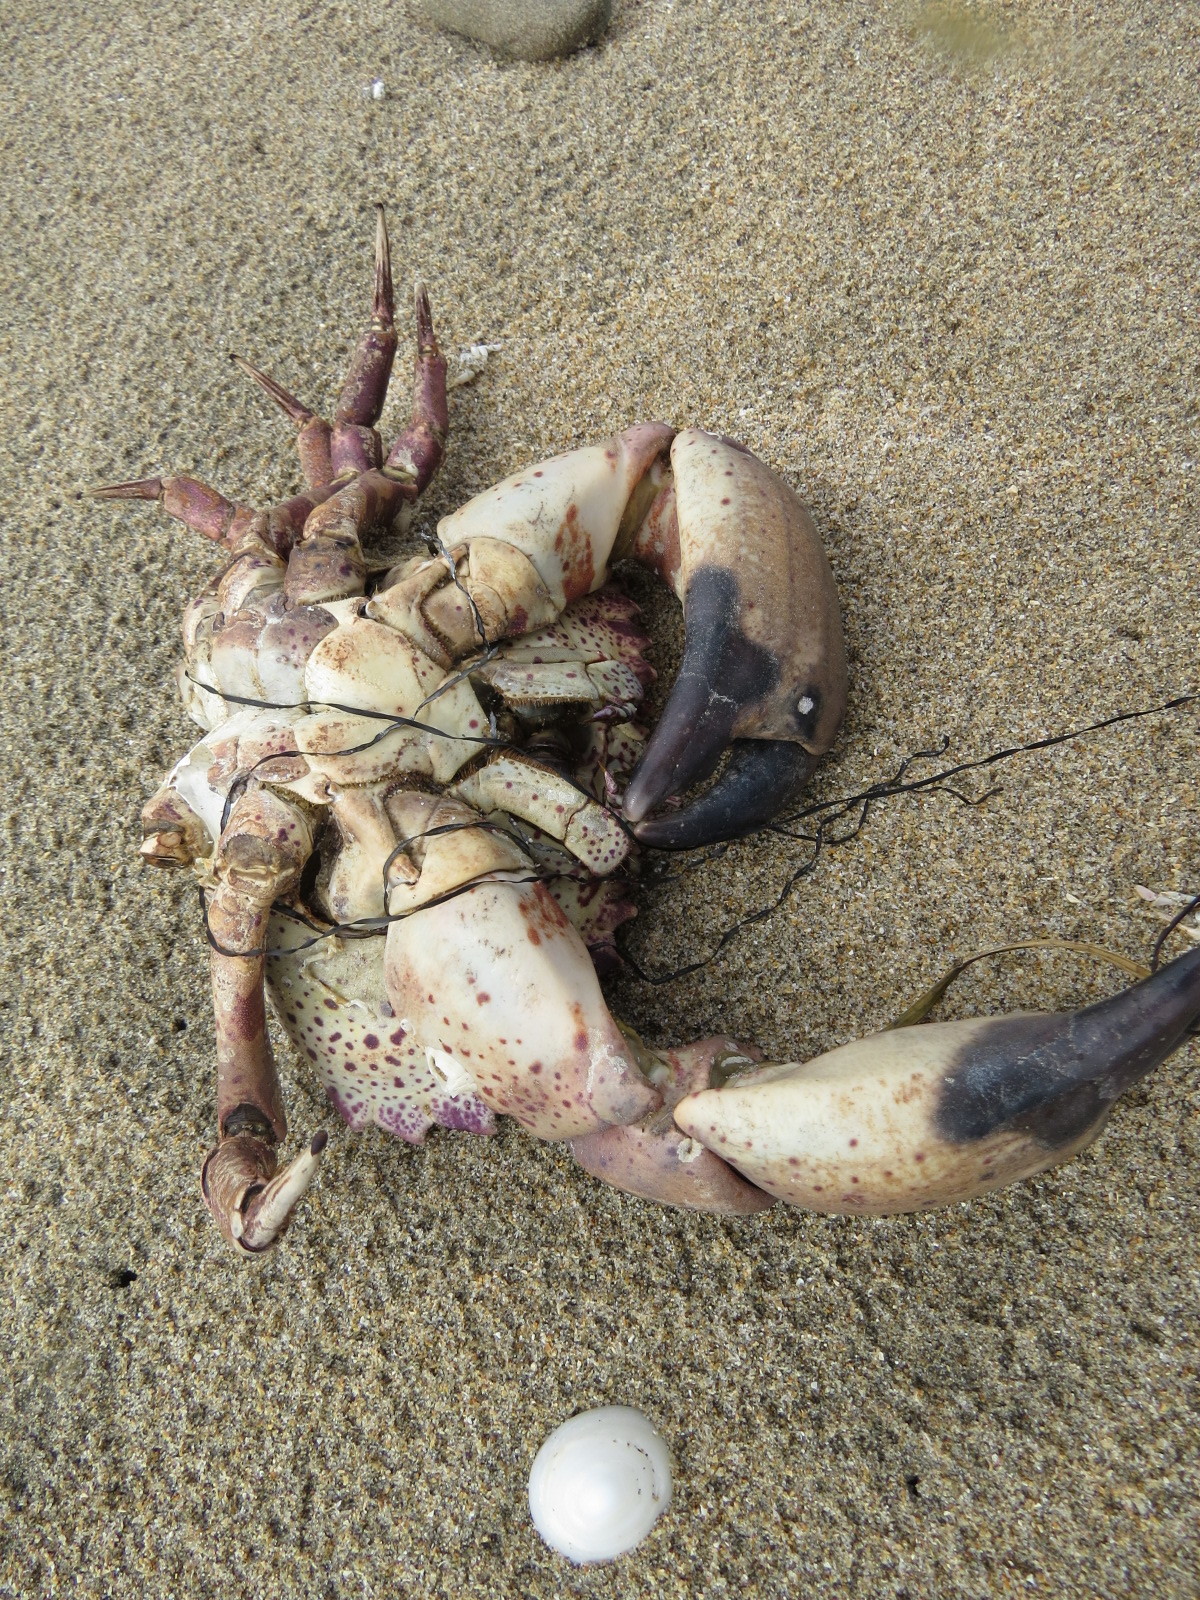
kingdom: Animalia
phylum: Arthropoda
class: Malacostraca
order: Decapoda
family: Cancridae
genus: Romaleon
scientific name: Romaleon antennarium
